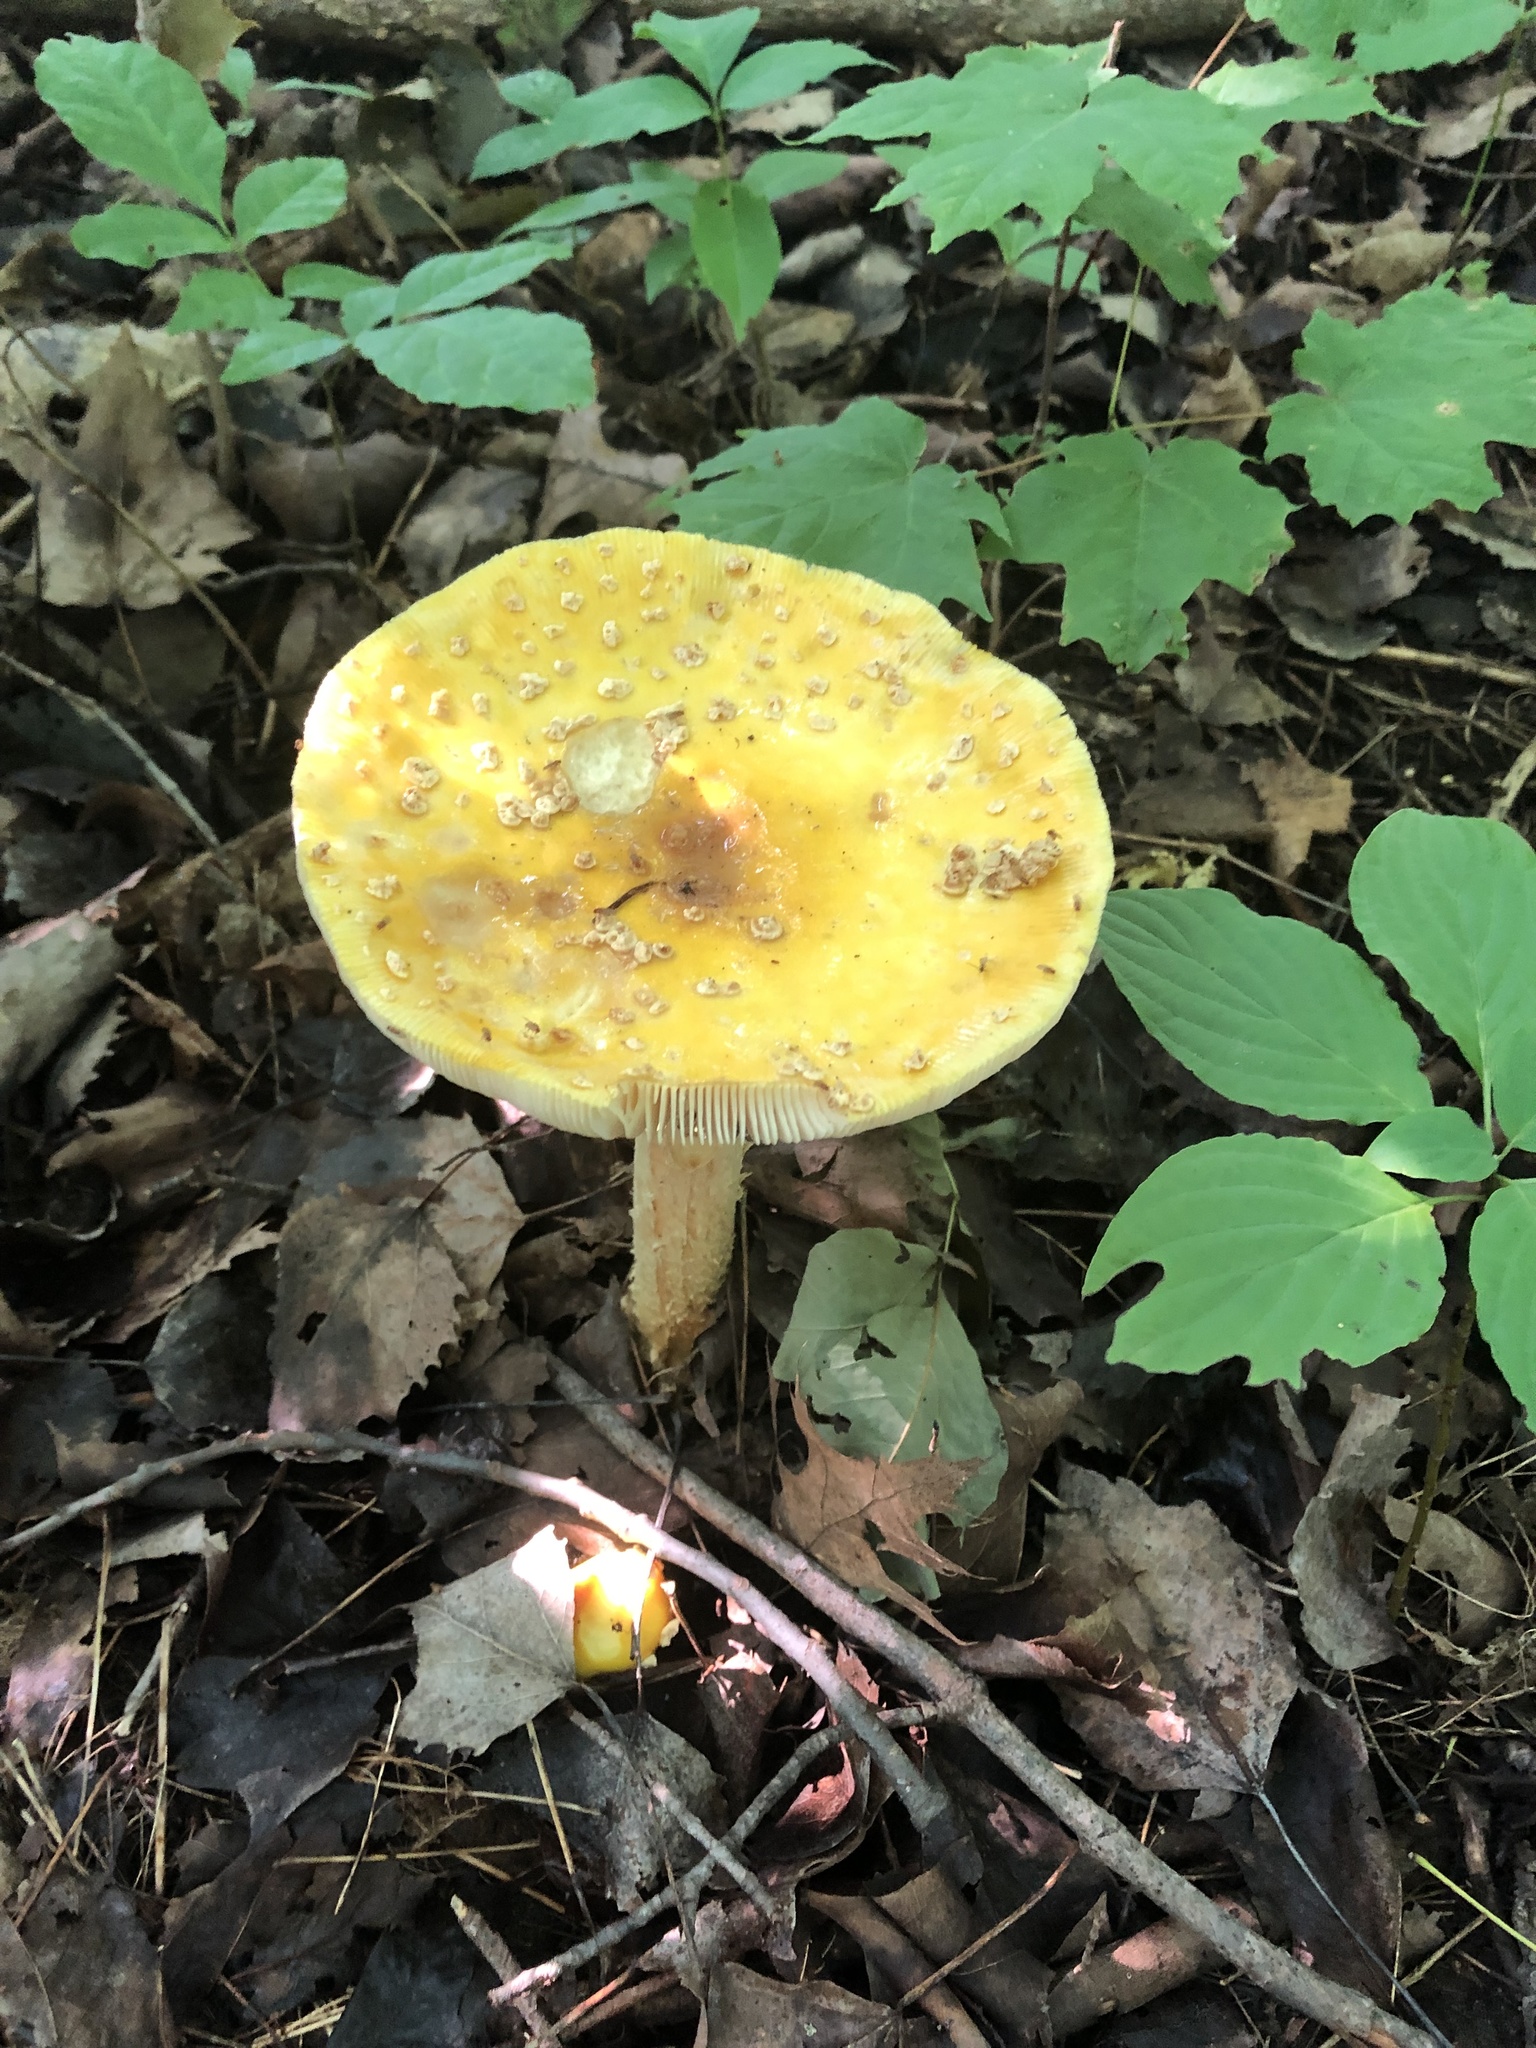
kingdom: Fungi
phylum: Basidiomycota
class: Agaricomycetes
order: Agaricales
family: Amanitaceae
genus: Amanita
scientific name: Amanita muscaria
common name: Fly agaric
